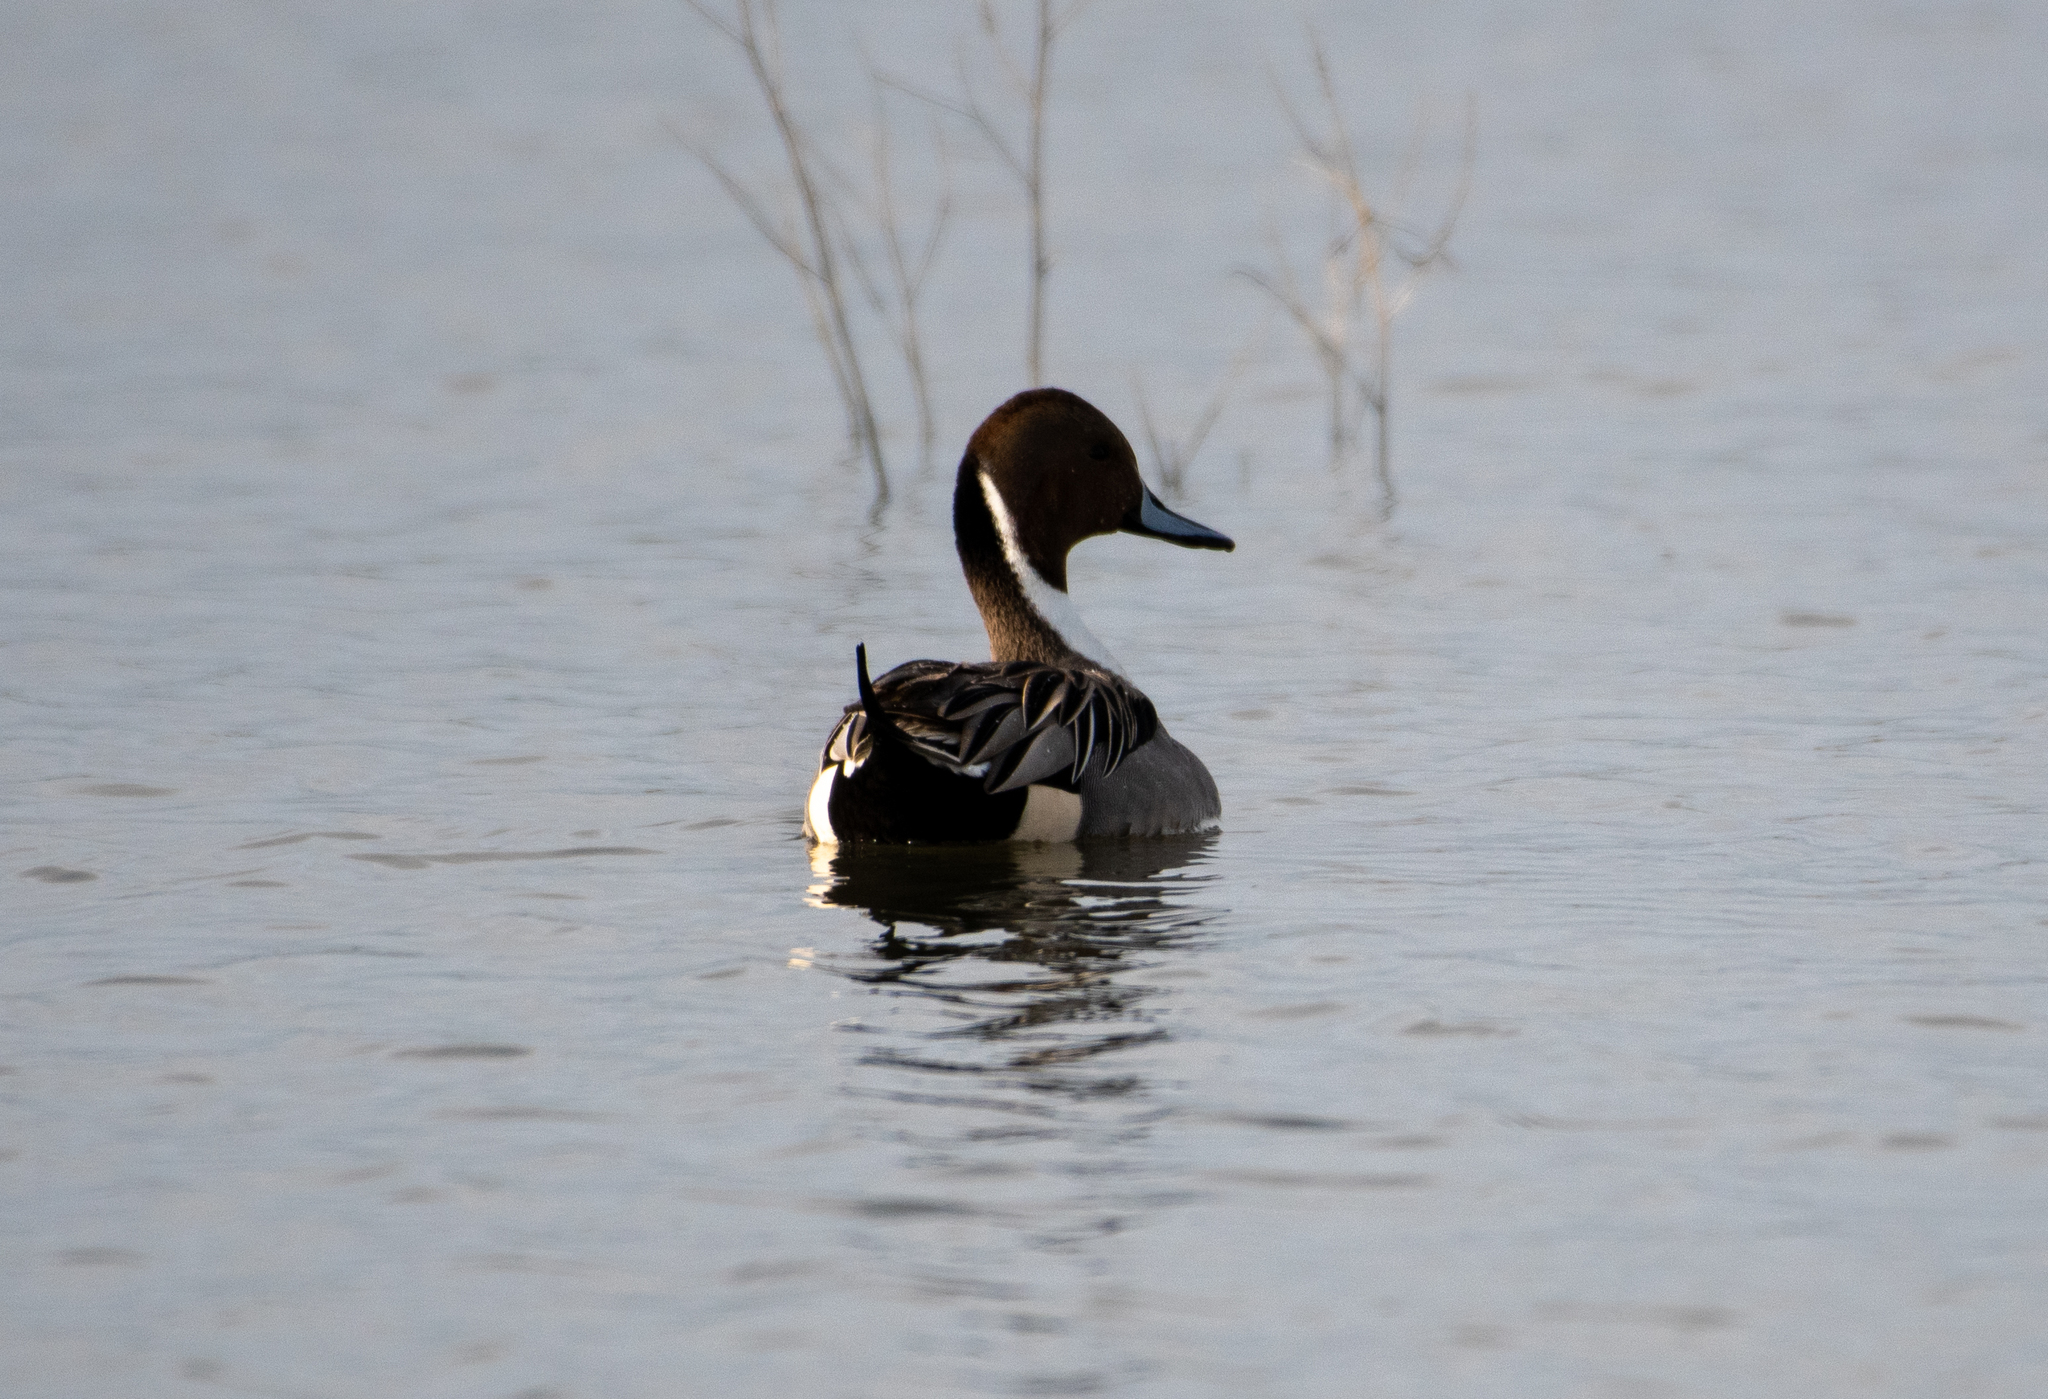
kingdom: Animalia
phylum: Chordata
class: Aves
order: Anseriformes
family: Anatidae
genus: Anas
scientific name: Anas acuta
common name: Northern pintail
